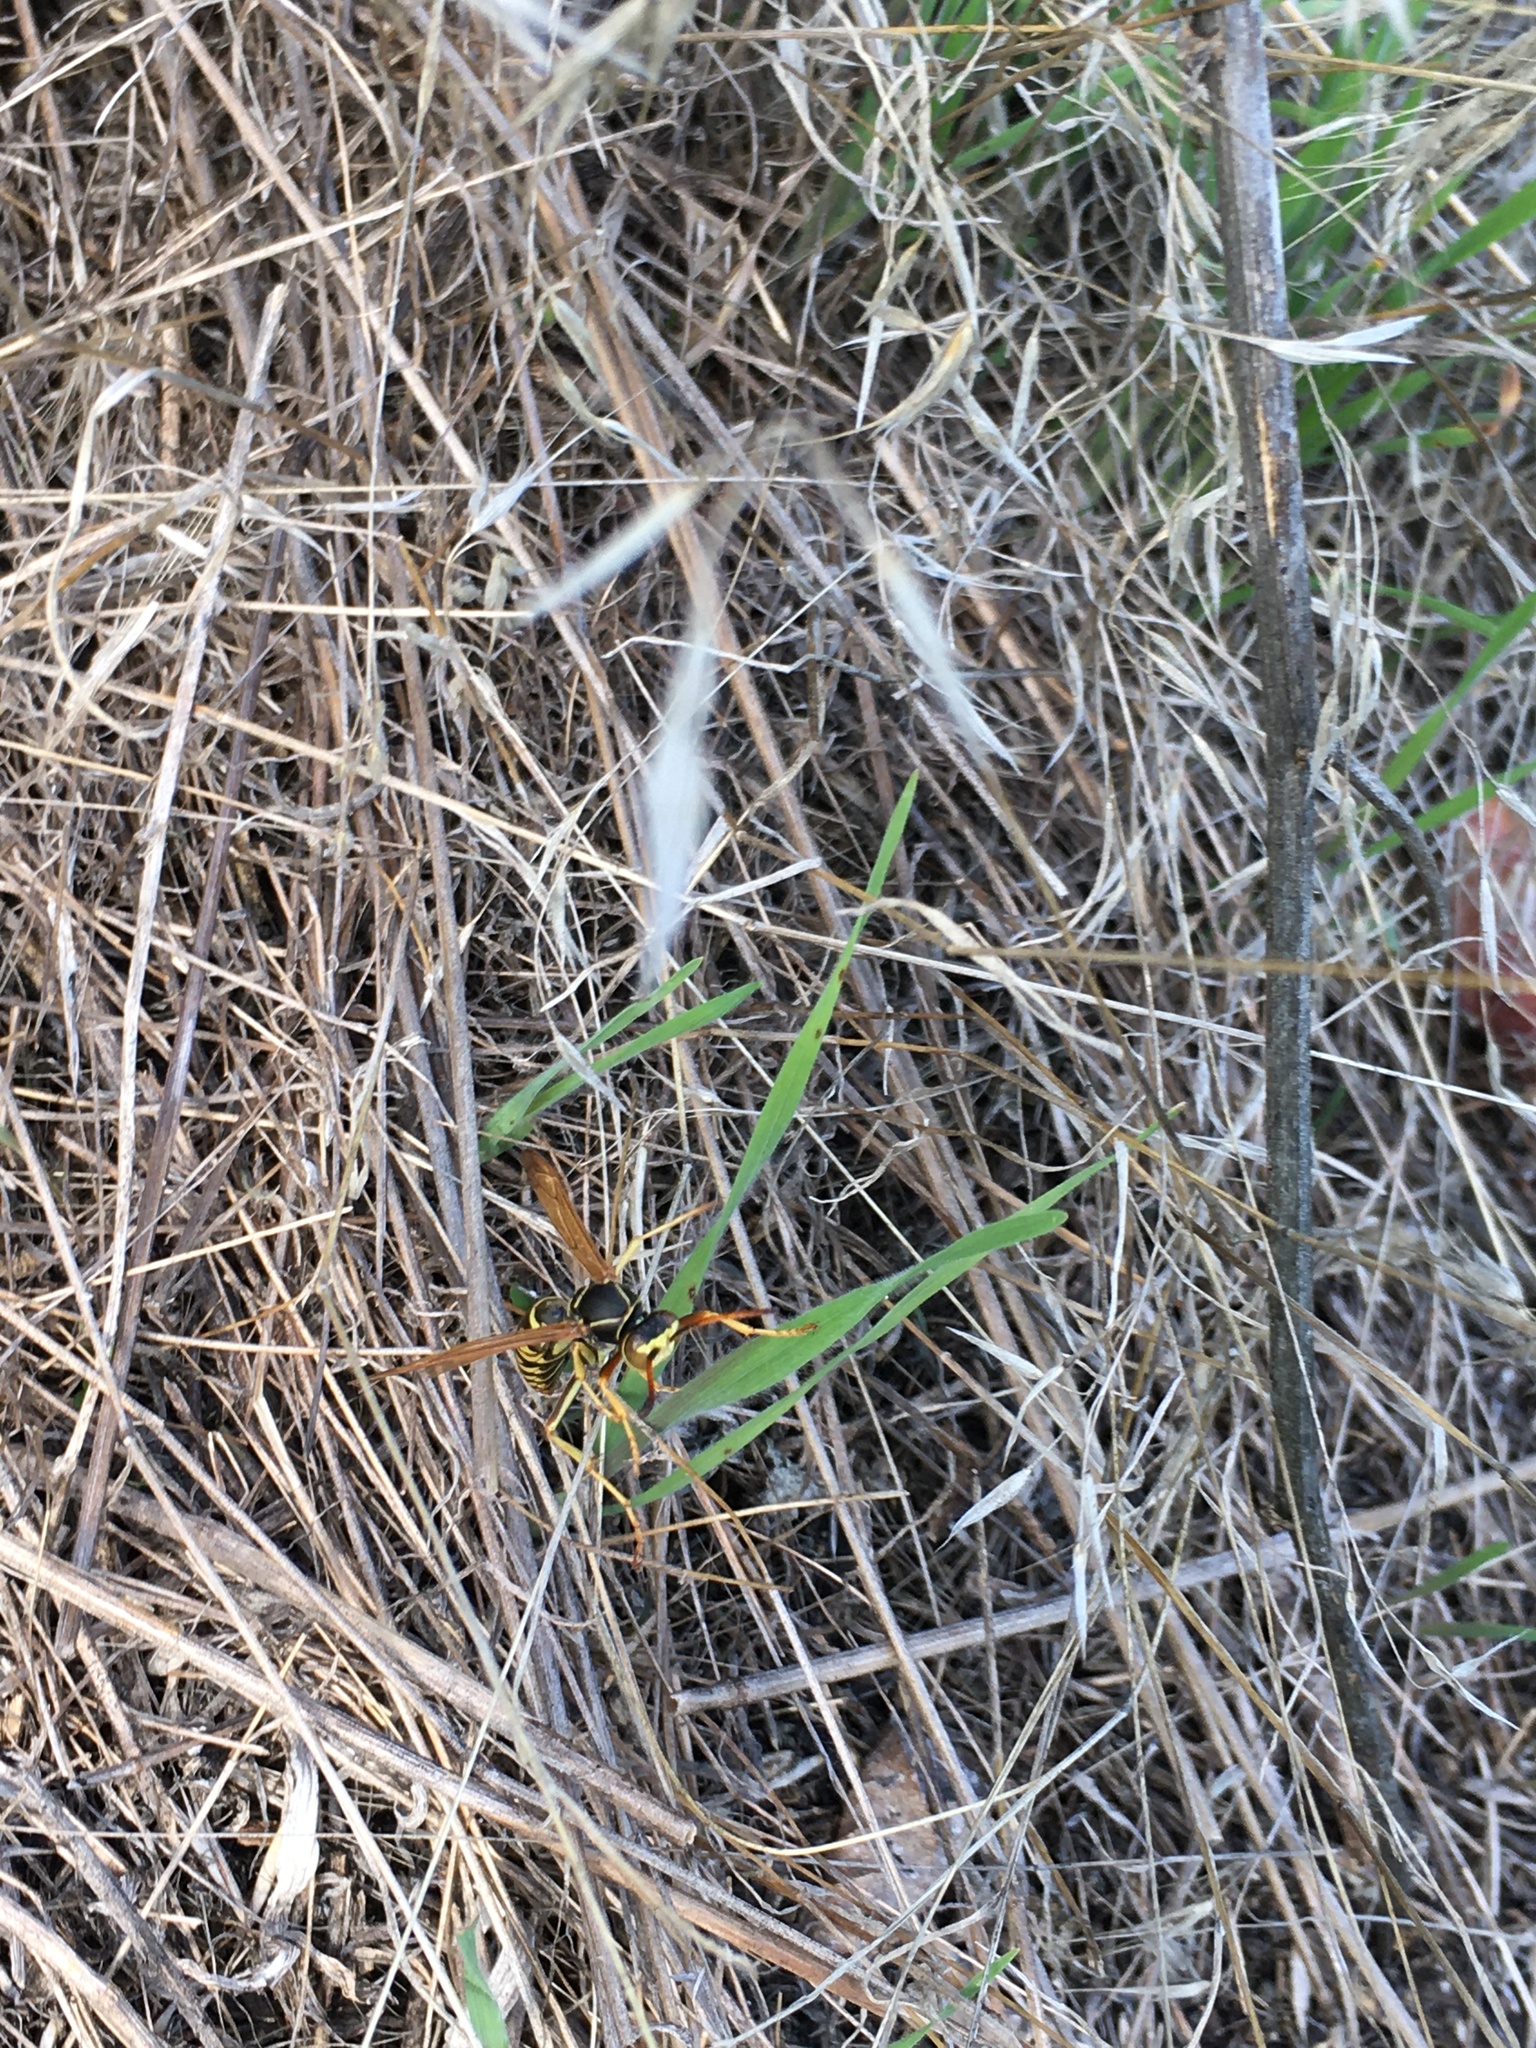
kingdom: Animalia
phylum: Arthropoda
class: Insecta
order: Hymenoptera
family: Eumenidae
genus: Polistes
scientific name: Polistes aurifer
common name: Paper wasp
